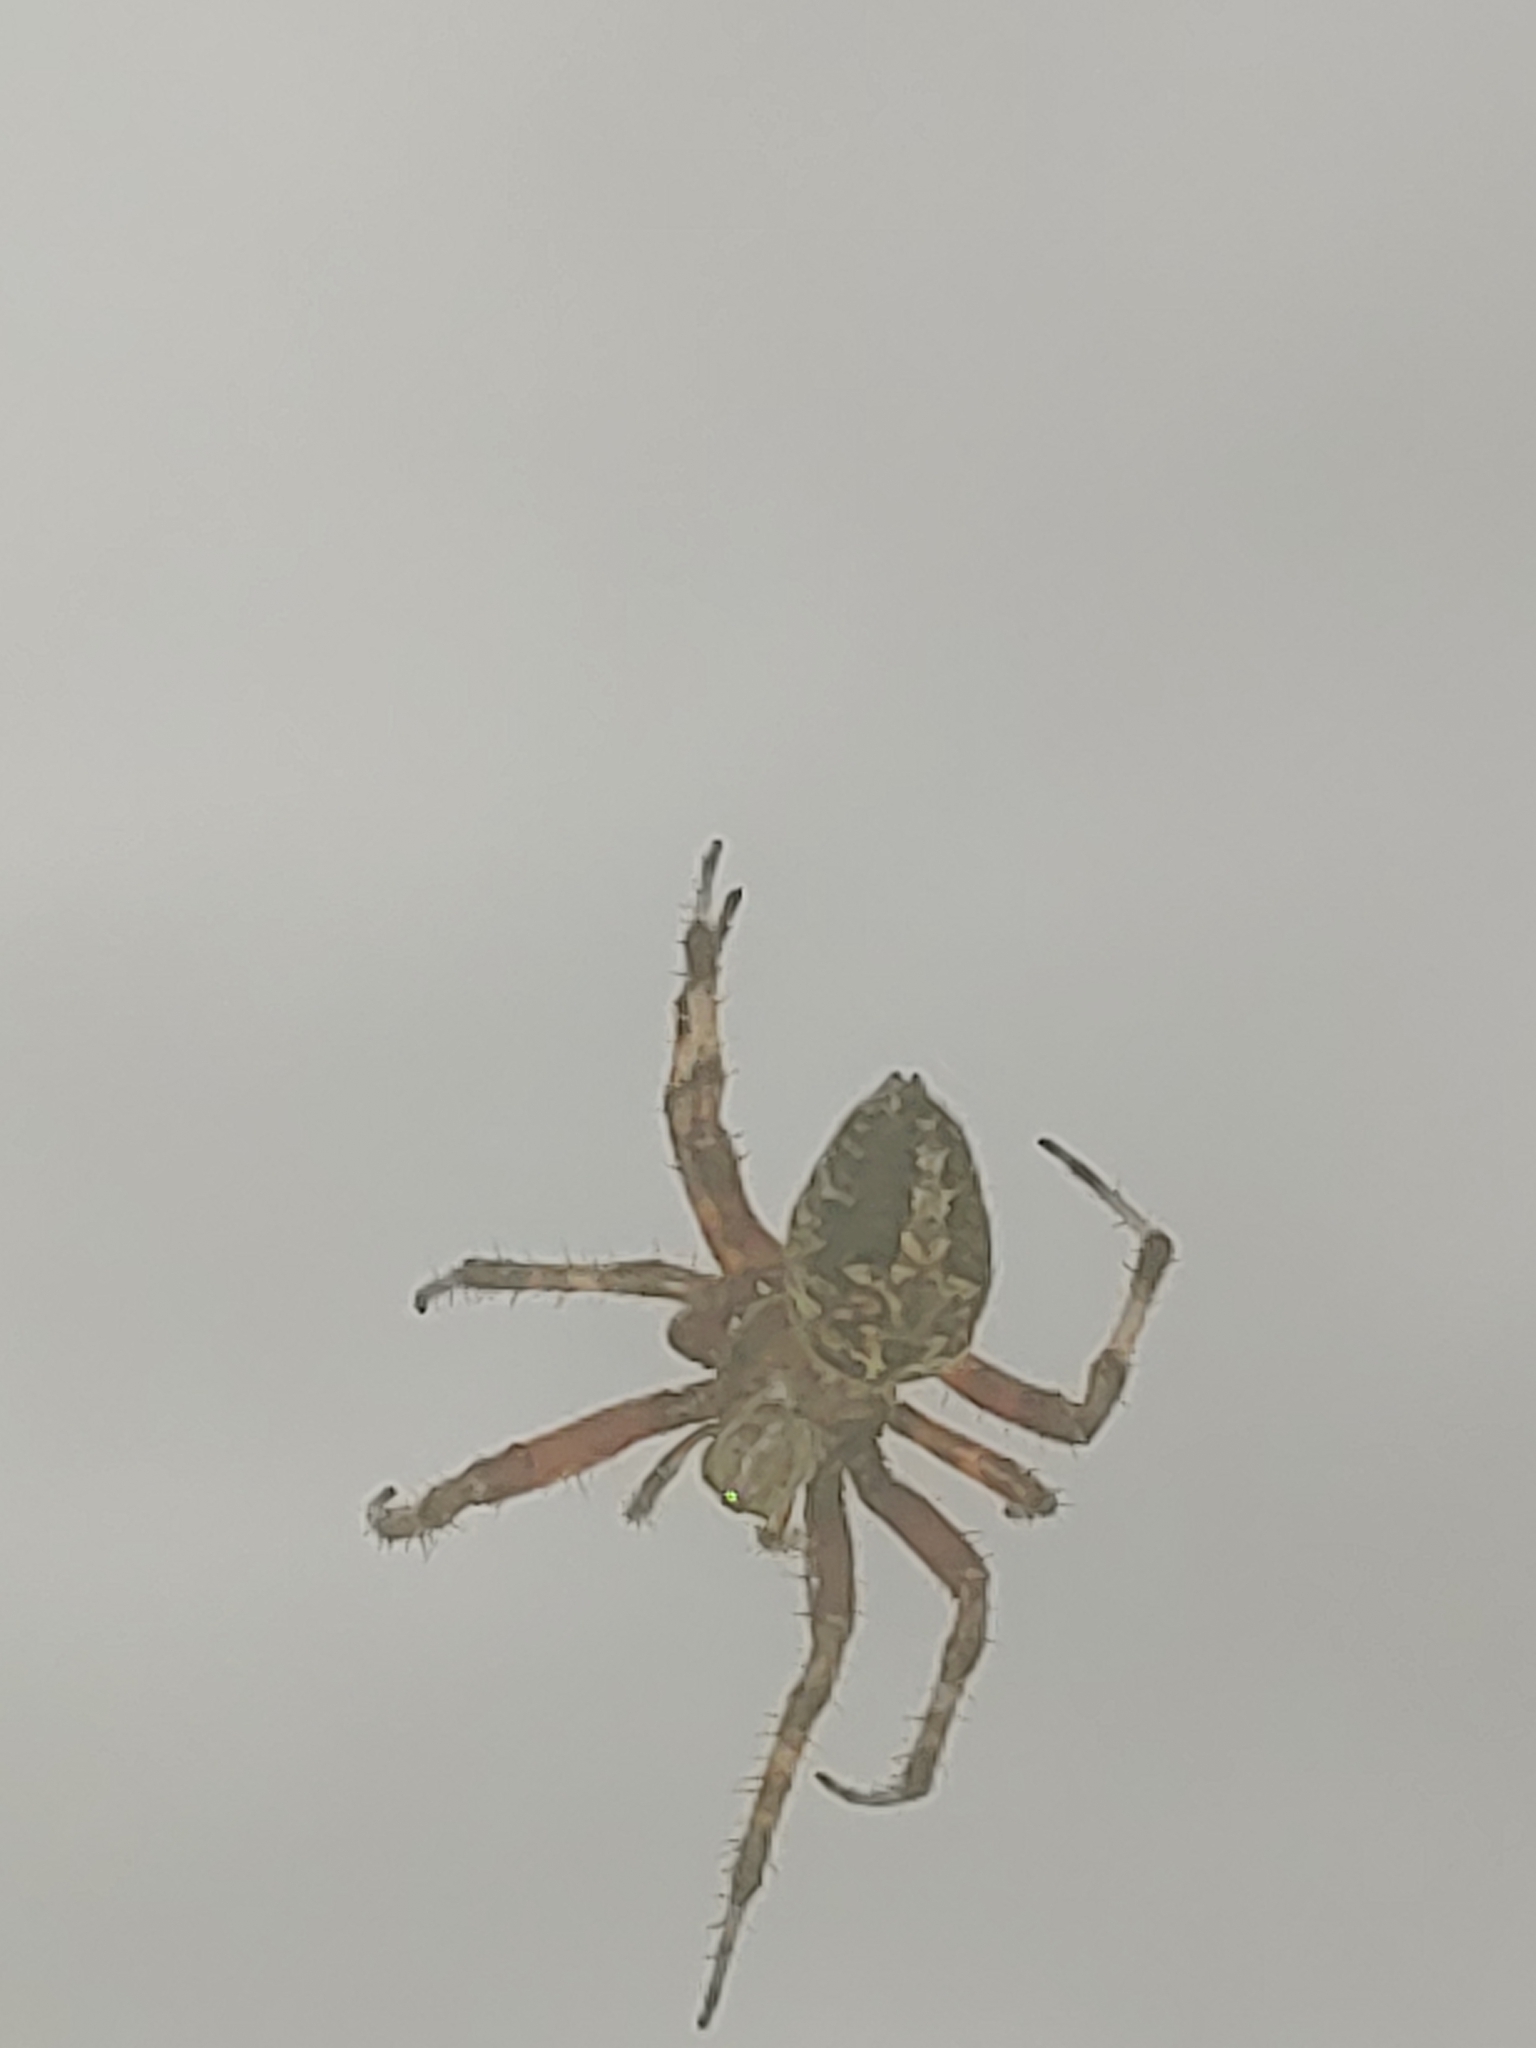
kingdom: Animalia
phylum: Arthropoda
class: Arachnida
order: Araneae
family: Araneidae
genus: Neoscona
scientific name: Neoscona domiciliorum
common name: Red-femured spotted orbweaver
